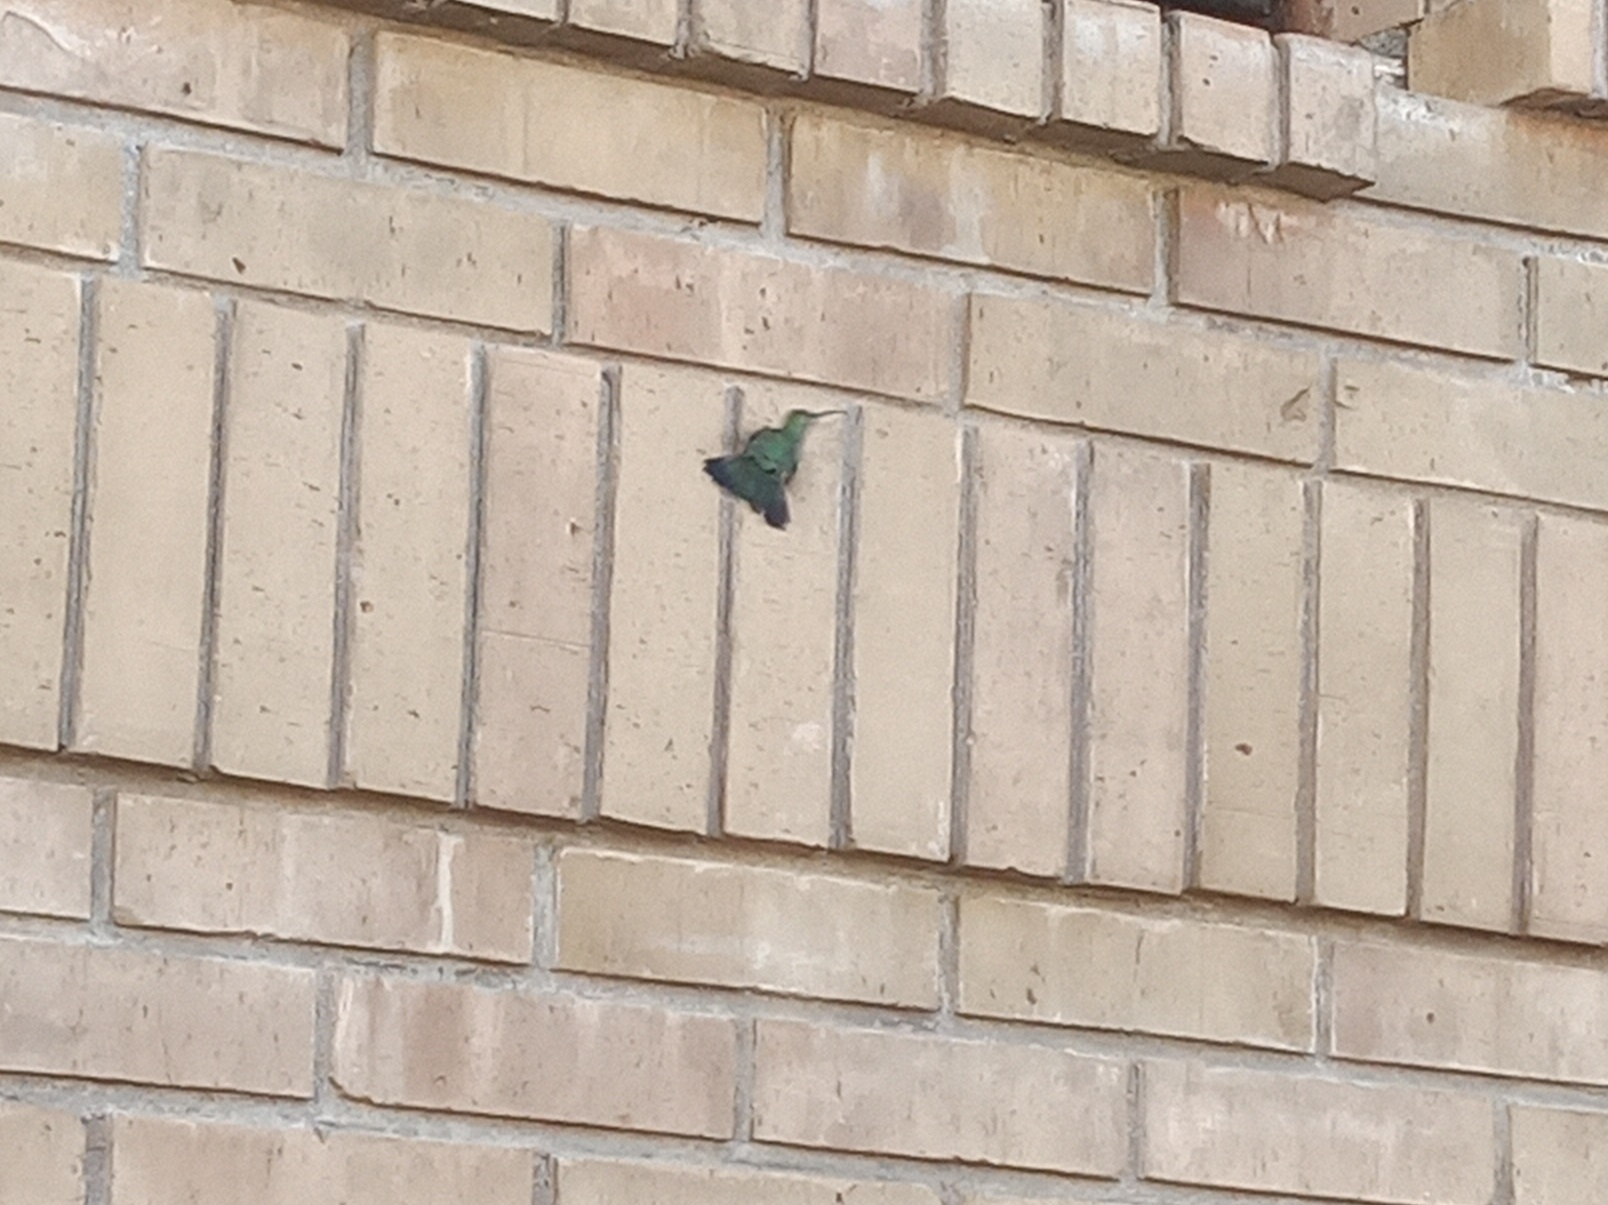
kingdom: Animalia
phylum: Chordata
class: Aves
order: Apodiformes
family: Trochilidae
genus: Cynanthus
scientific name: Cynanthus latirostris
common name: Broad-billed hummingbird
